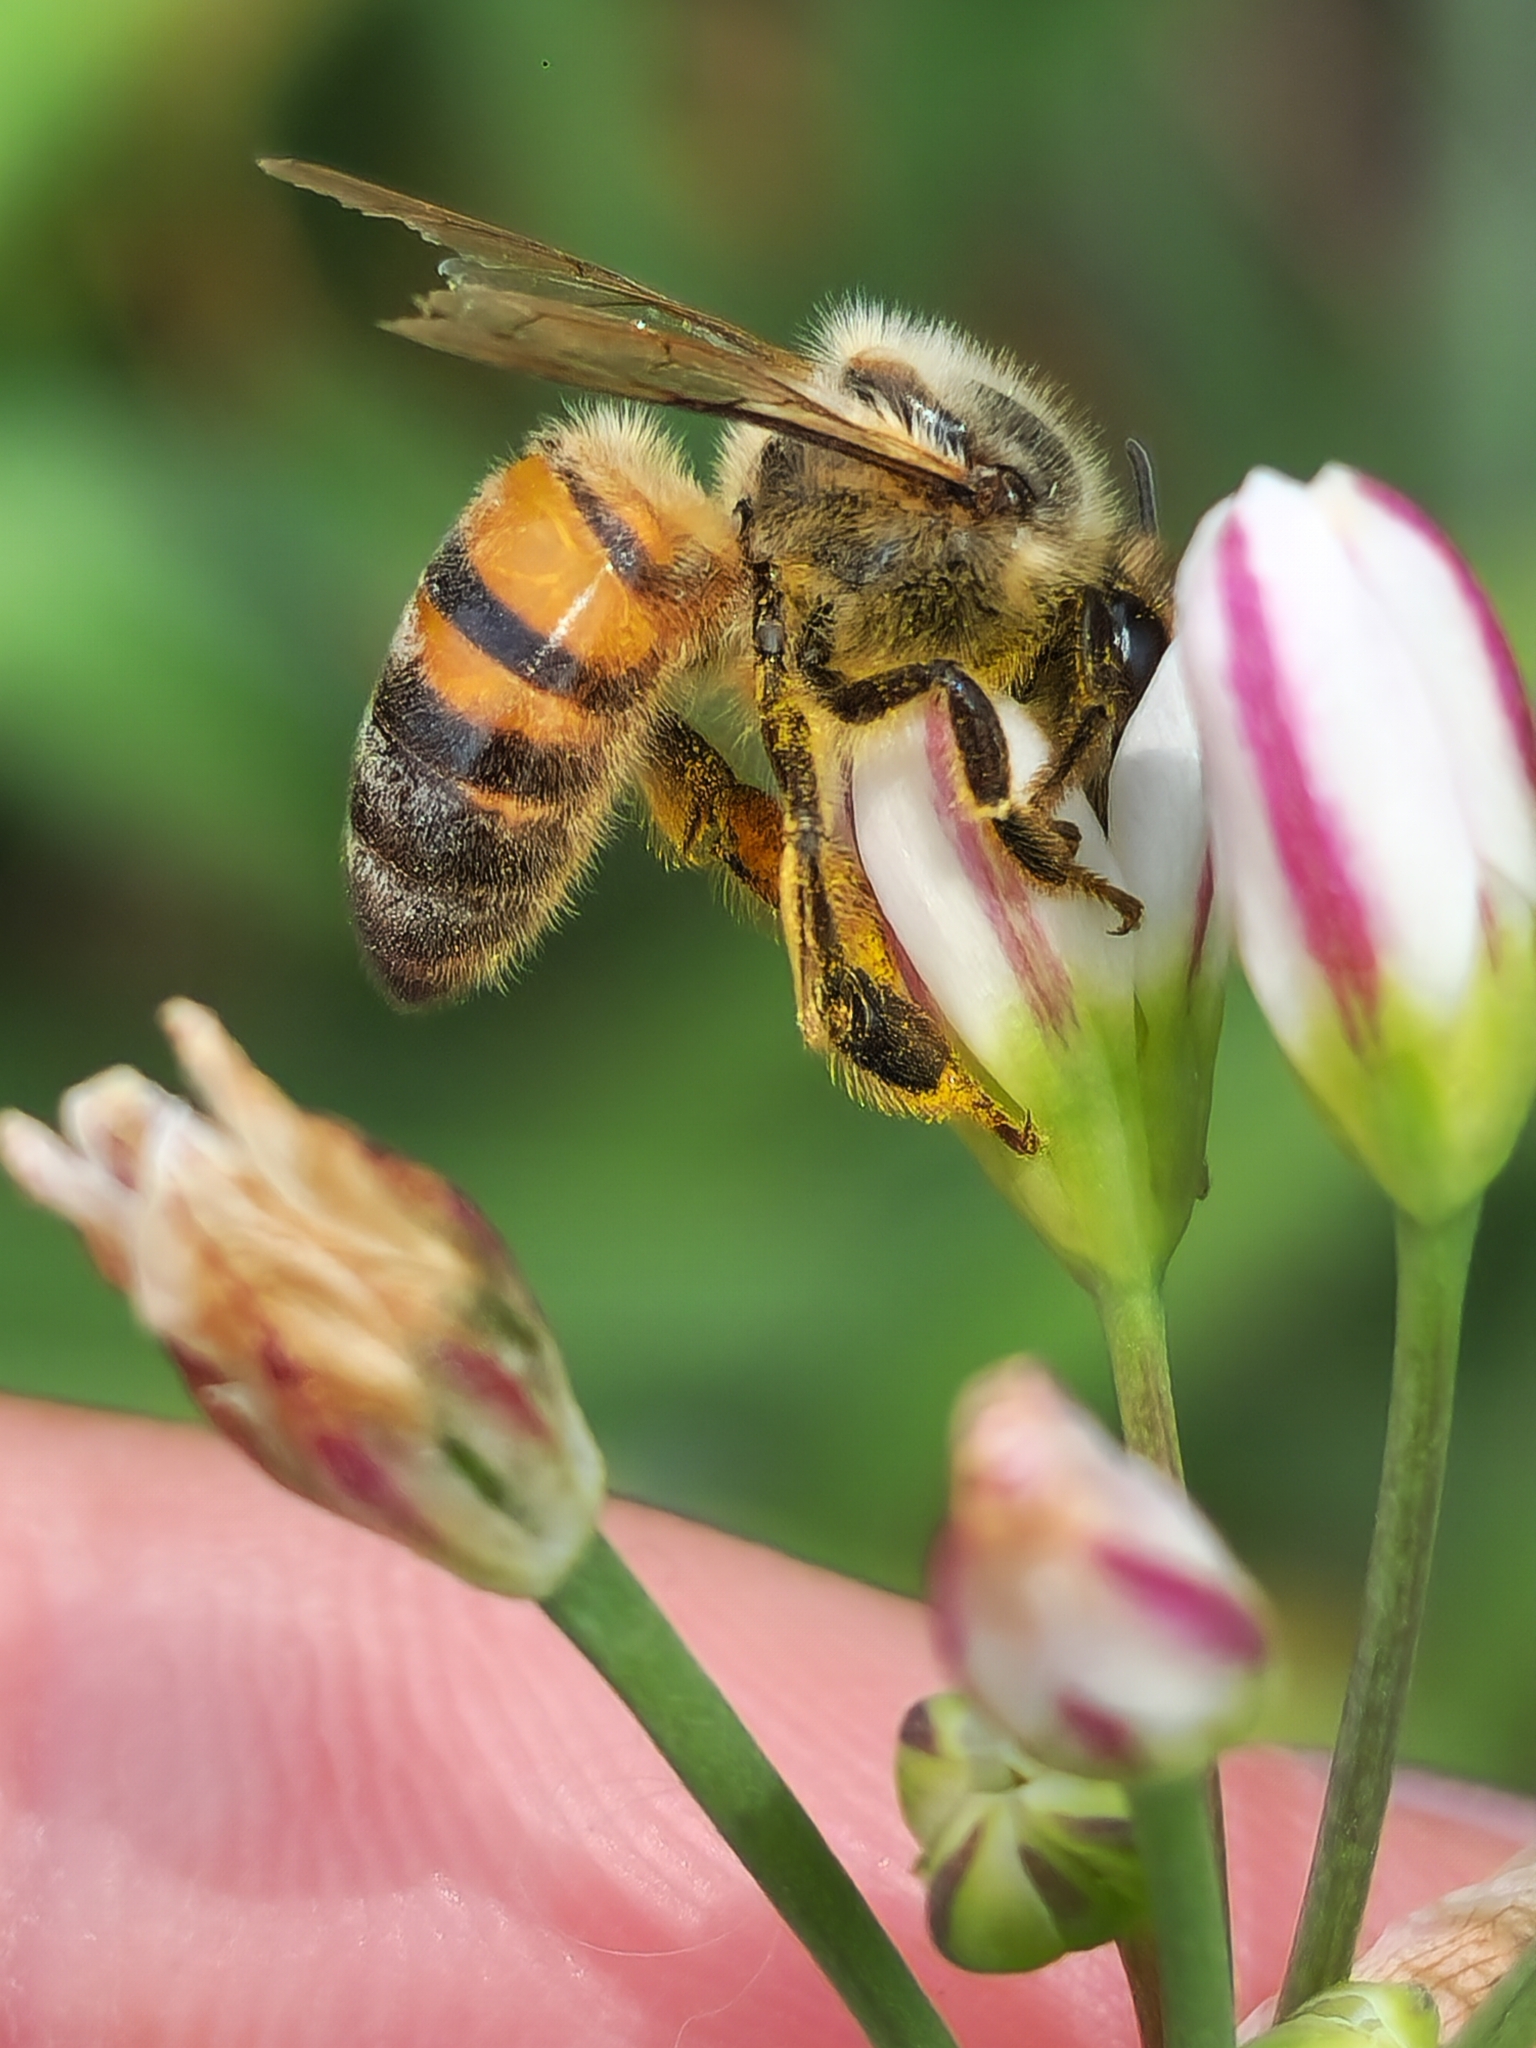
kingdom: Animalia
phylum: Arthropoda
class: Insecta
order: Hymenoptera
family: Apidae
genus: Apis
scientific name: Apis mellifera
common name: Honey bee
